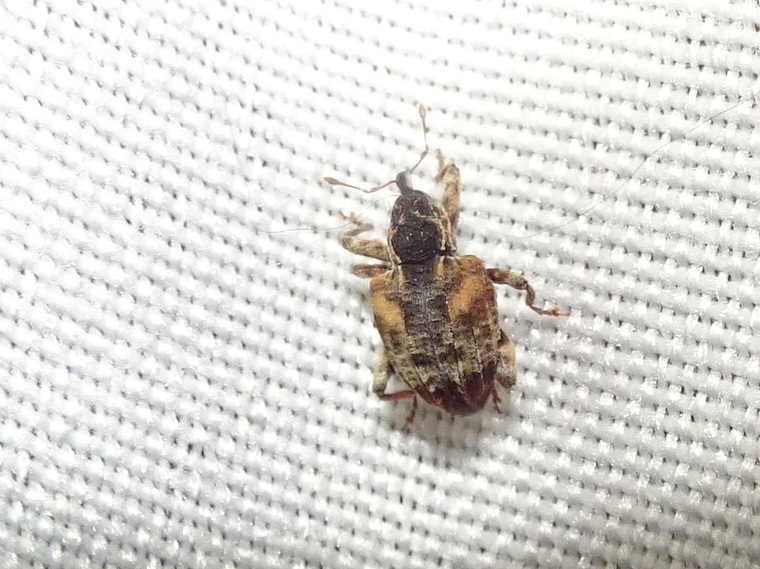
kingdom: Animalia
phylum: Arthropoda
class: Insecta
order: Coleoptera
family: Curculionidae
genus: Conotrachelus
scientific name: Conotrachelus anaglypticus
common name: Cambium curculio
